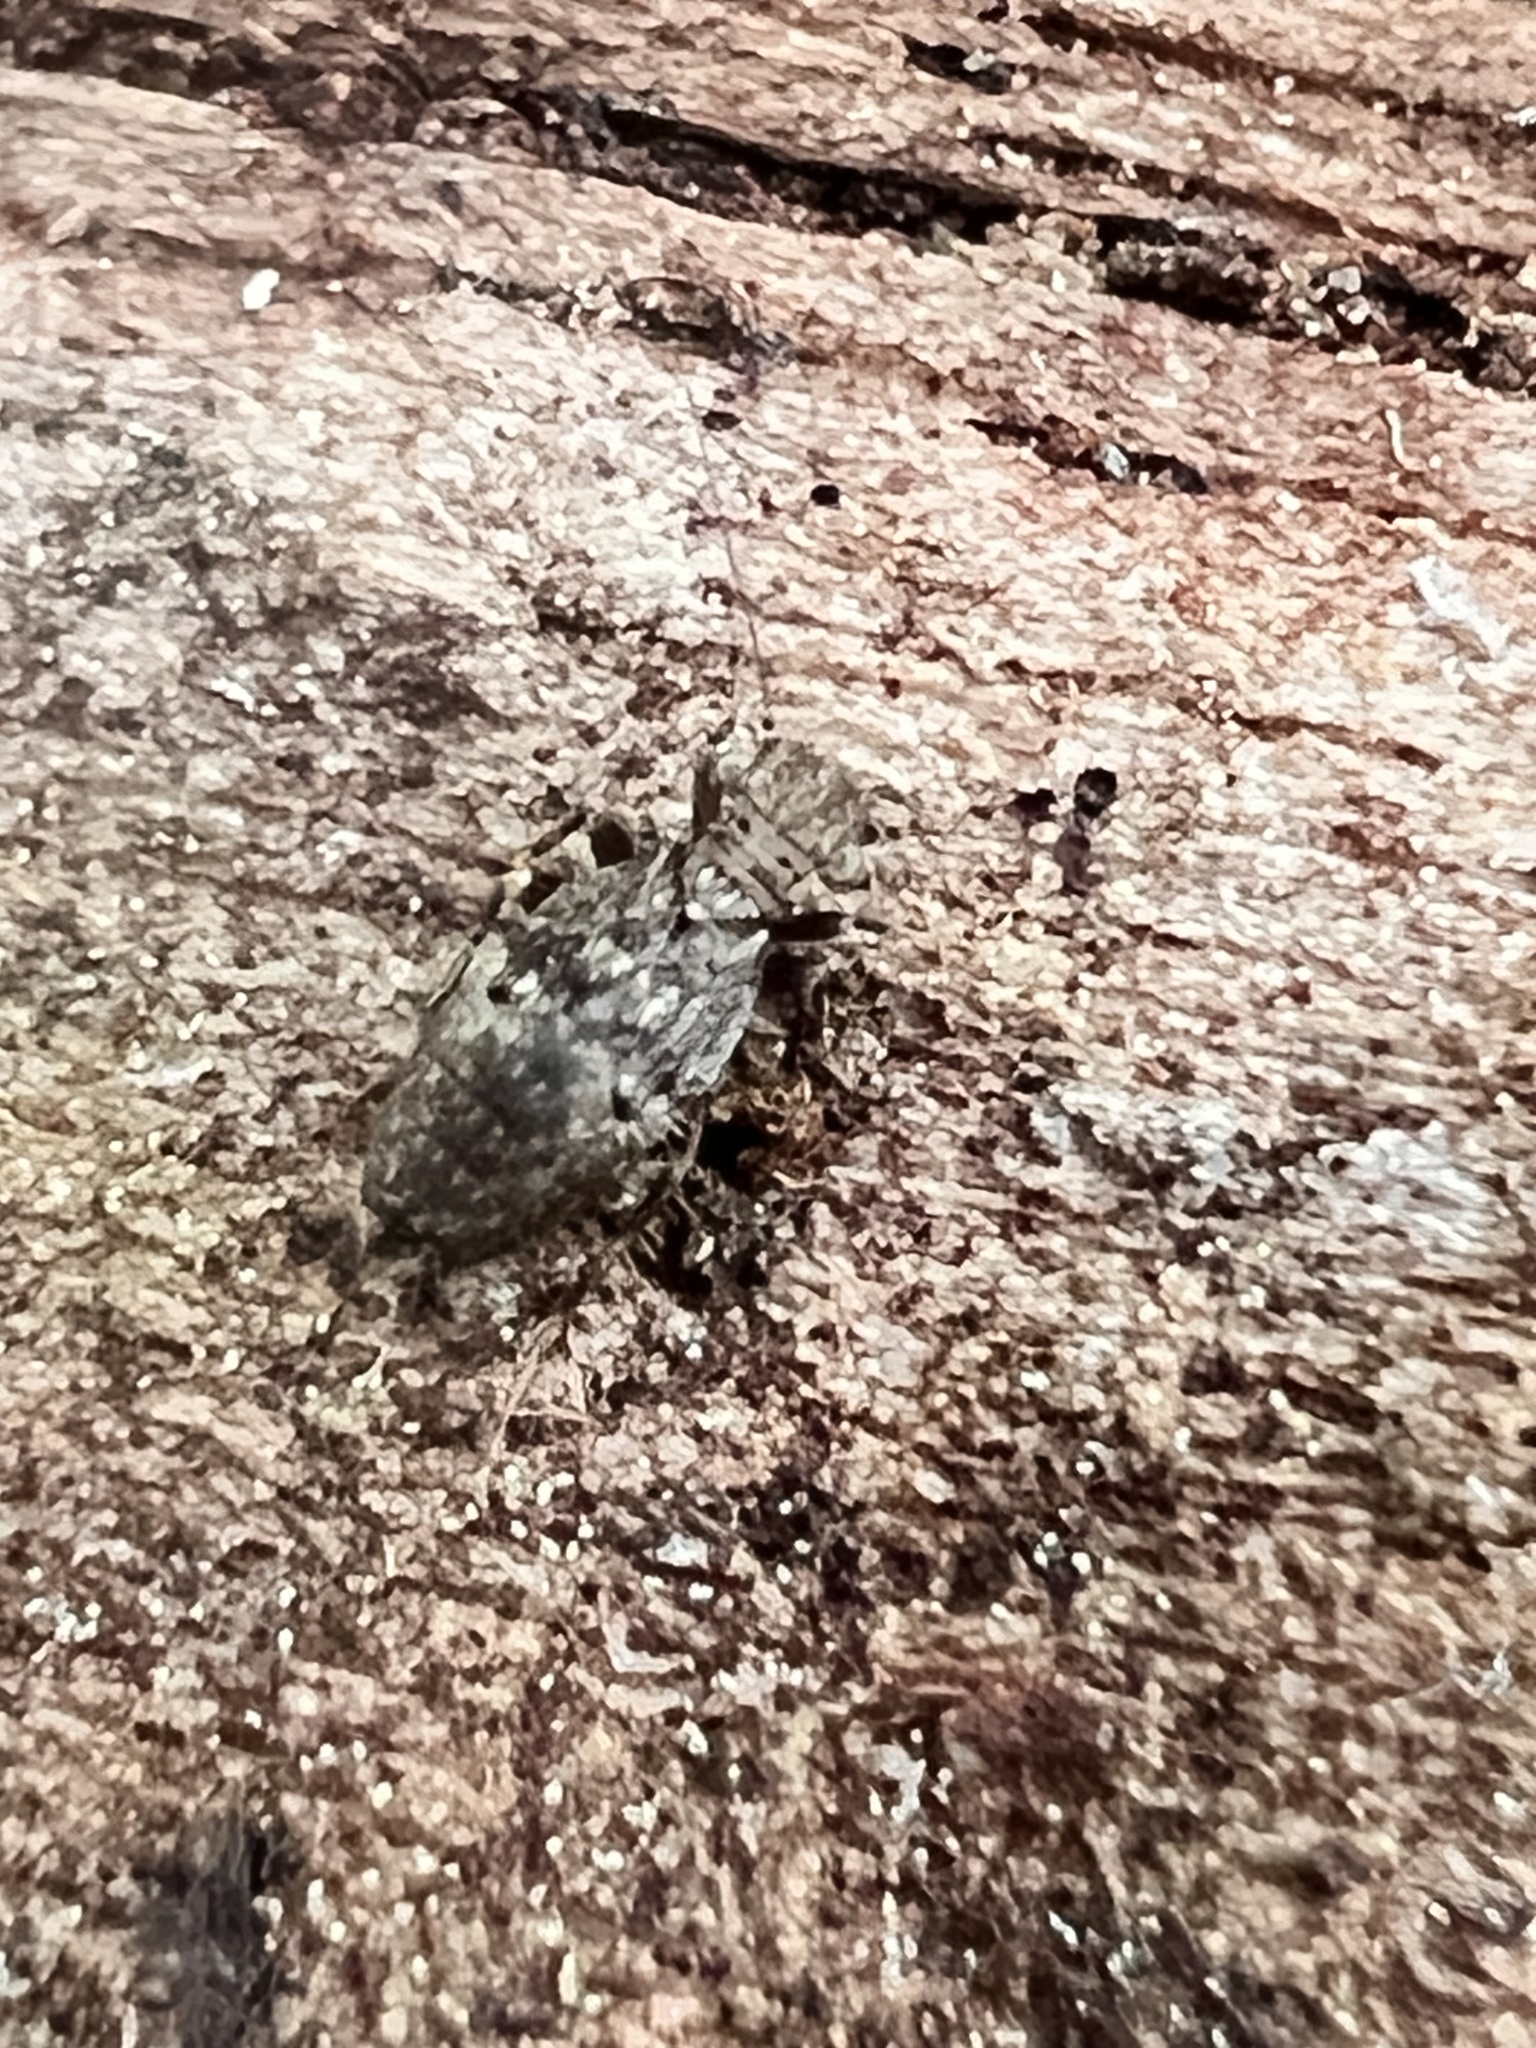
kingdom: Animalia
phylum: Arthropoda
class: Insecta
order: Psocodea
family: Lepidopsocidae
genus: Pteroxanium
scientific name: Pteroxanium kelloggi
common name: Bark lice
